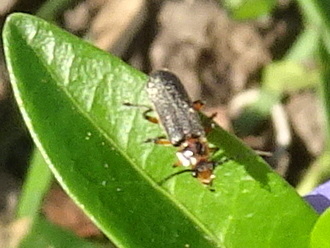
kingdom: Animalia
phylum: Arthropoda
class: Insecta
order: Coleoptera
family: Cantharidae
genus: Atalantycha
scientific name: Atalantycha bilineata
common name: Two-lined leatherwing
